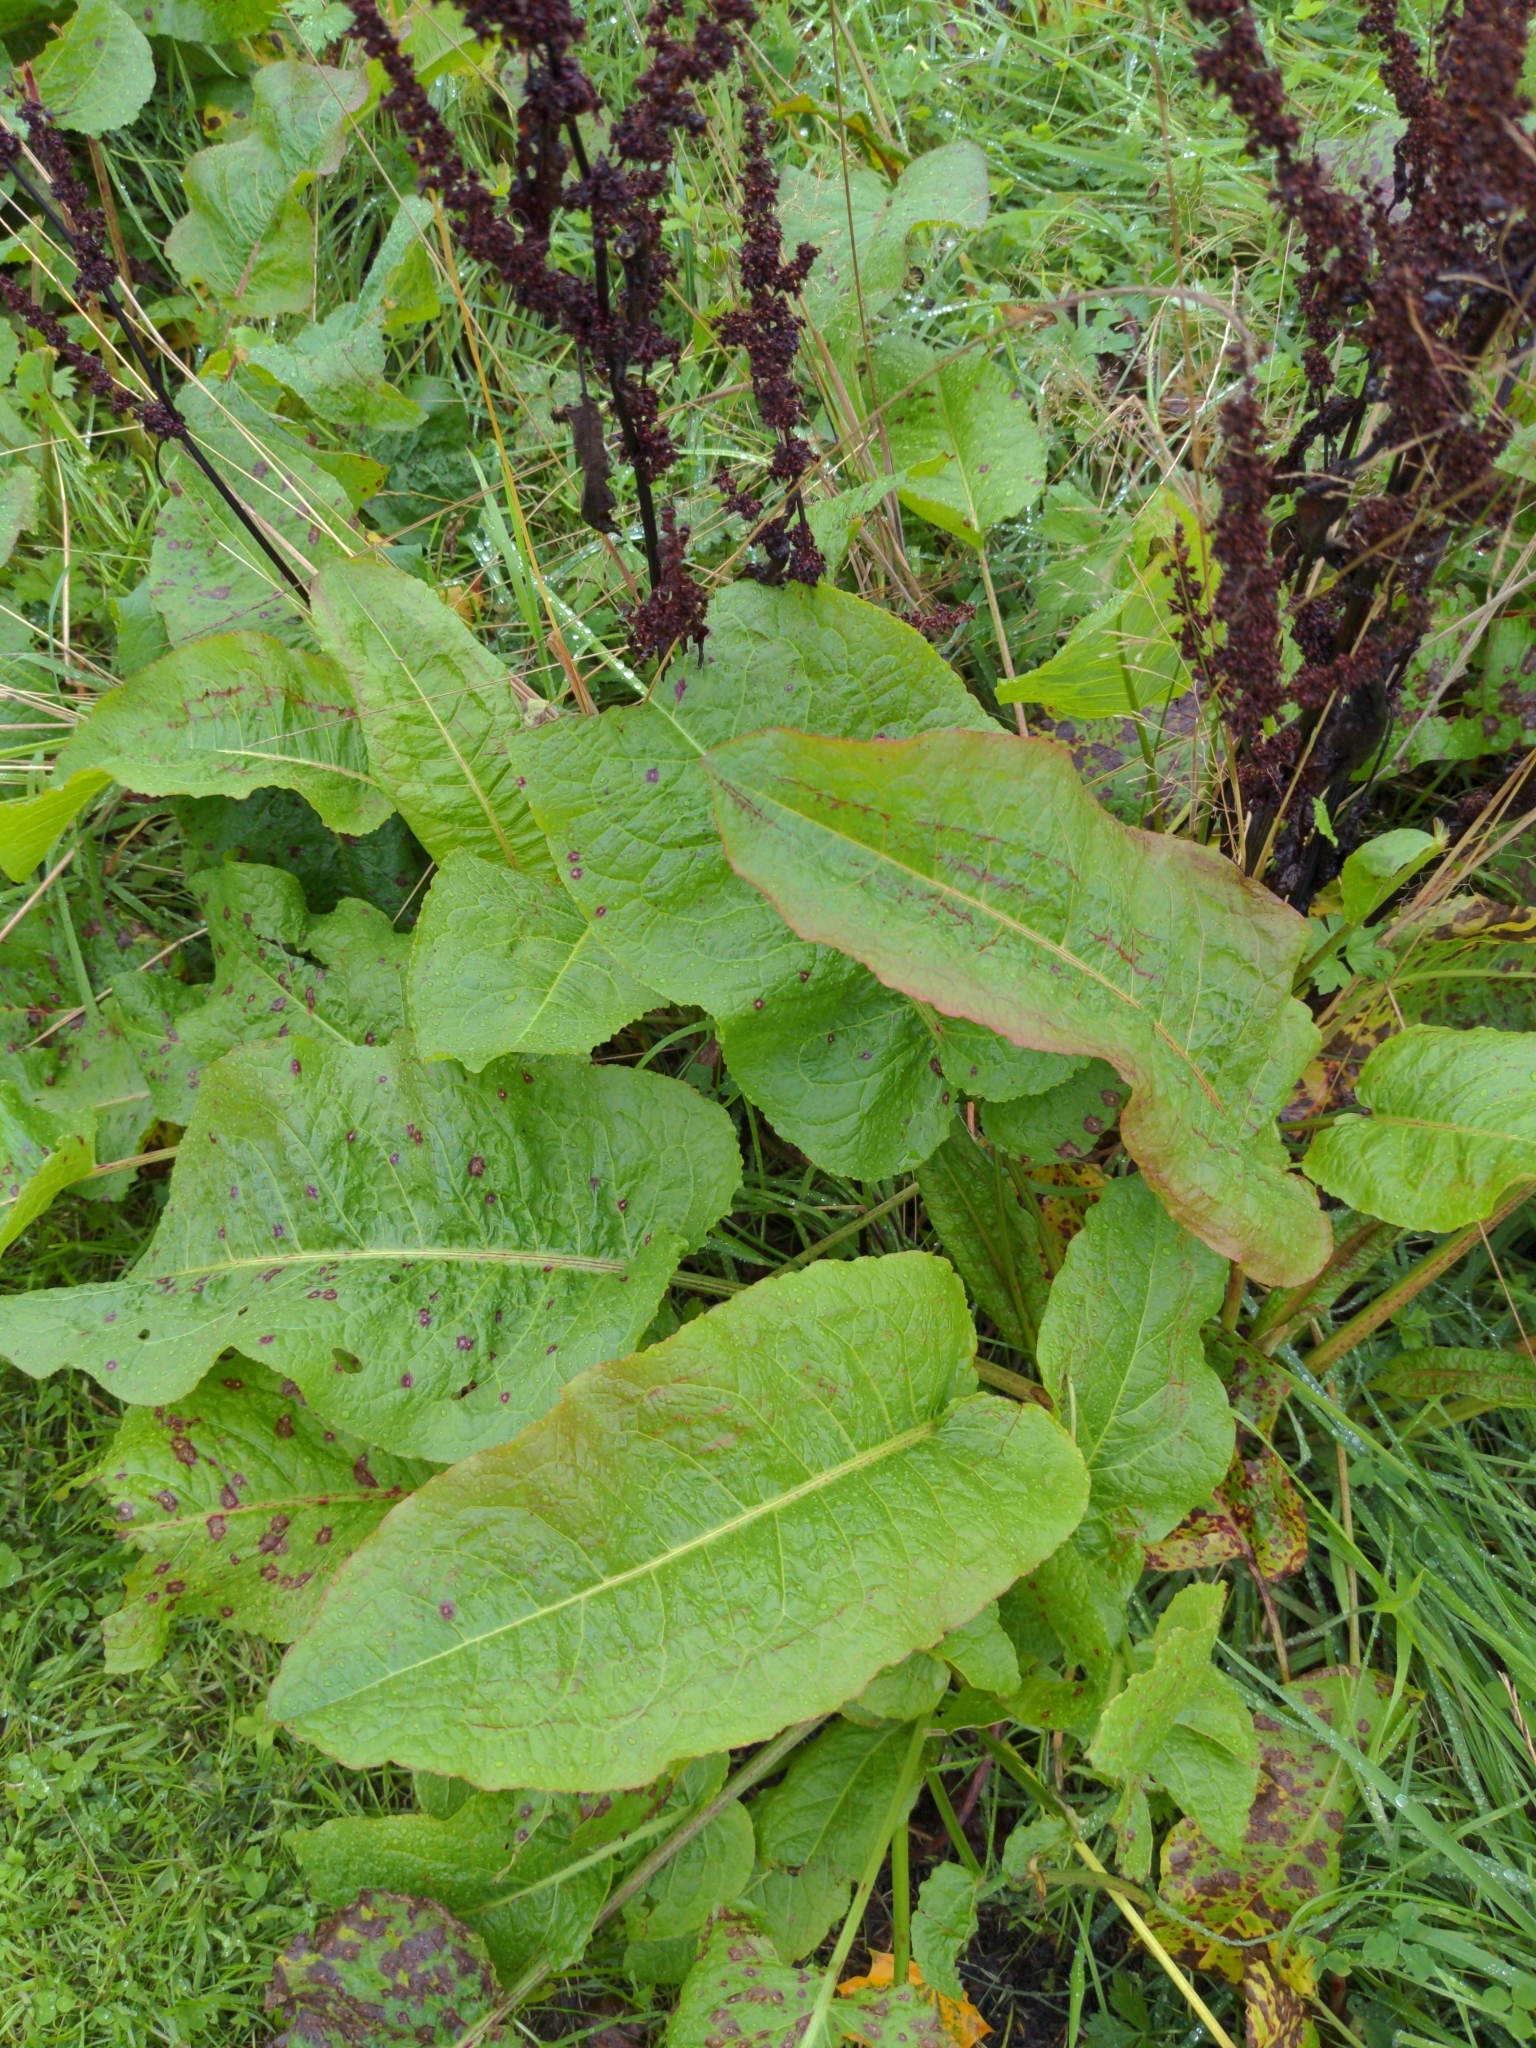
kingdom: Plantae
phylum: Tracheophyta
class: Magnoliopsida
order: Caryophyllales
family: Polygonaceae
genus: Rumex
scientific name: Rumex obtusifolius
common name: Bitter dock
